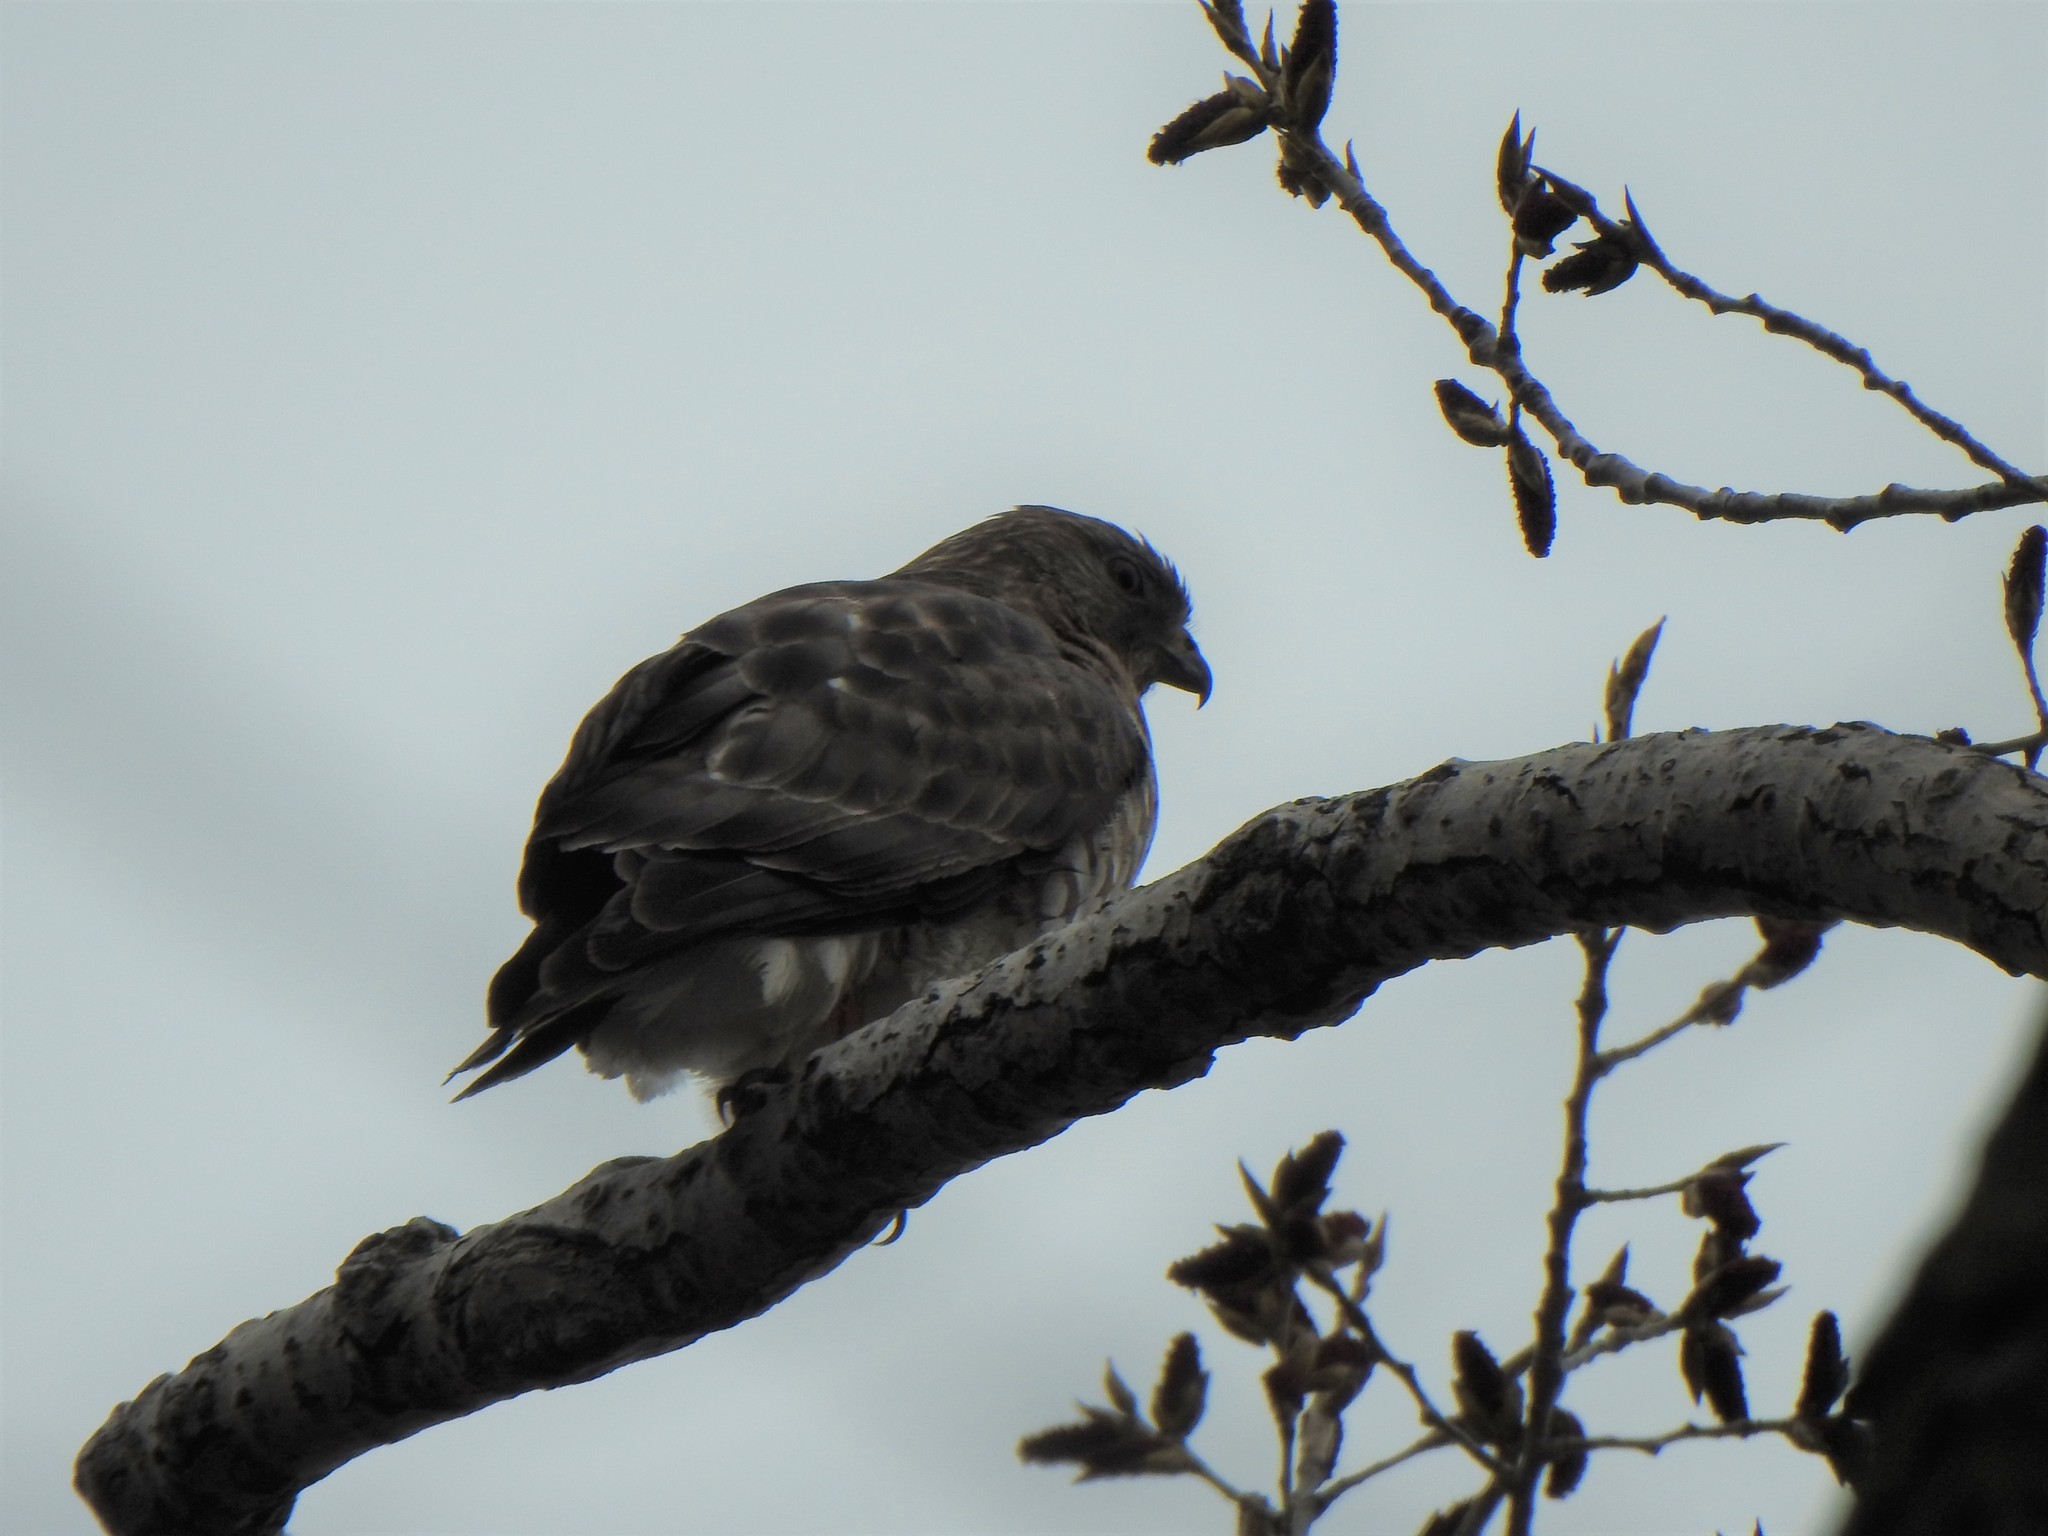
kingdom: Animalia
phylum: Chordata
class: Aves
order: Accipitriformes
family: Accipitridae
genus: Buteo
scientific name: Buteo platypterus
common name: Broad-winged hawk
